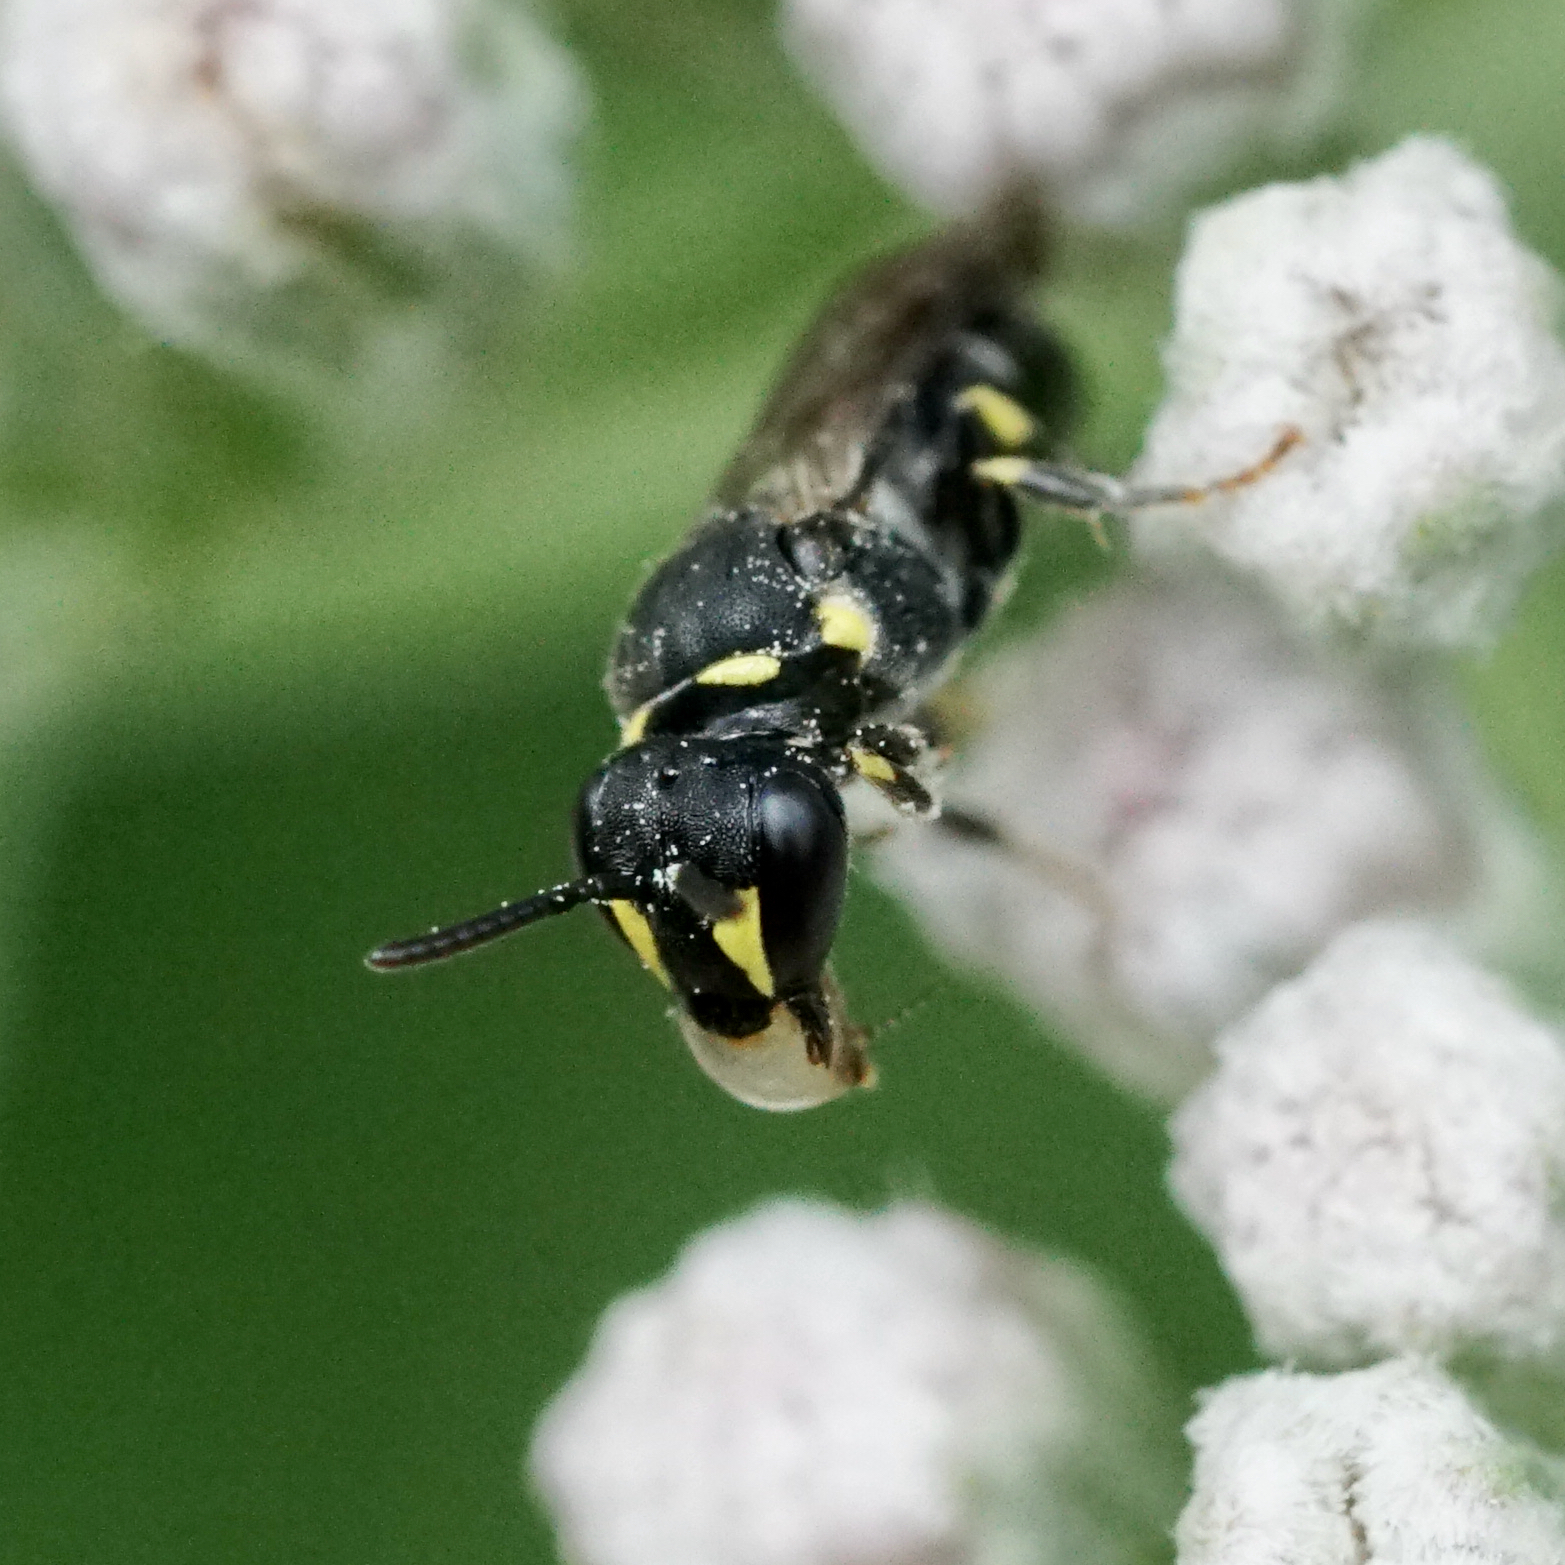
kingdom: Animalia
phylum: Arthropoda
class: Insecta
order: Hymenoptera
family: Colletidae
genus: Prosopis
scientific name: Prosopis
